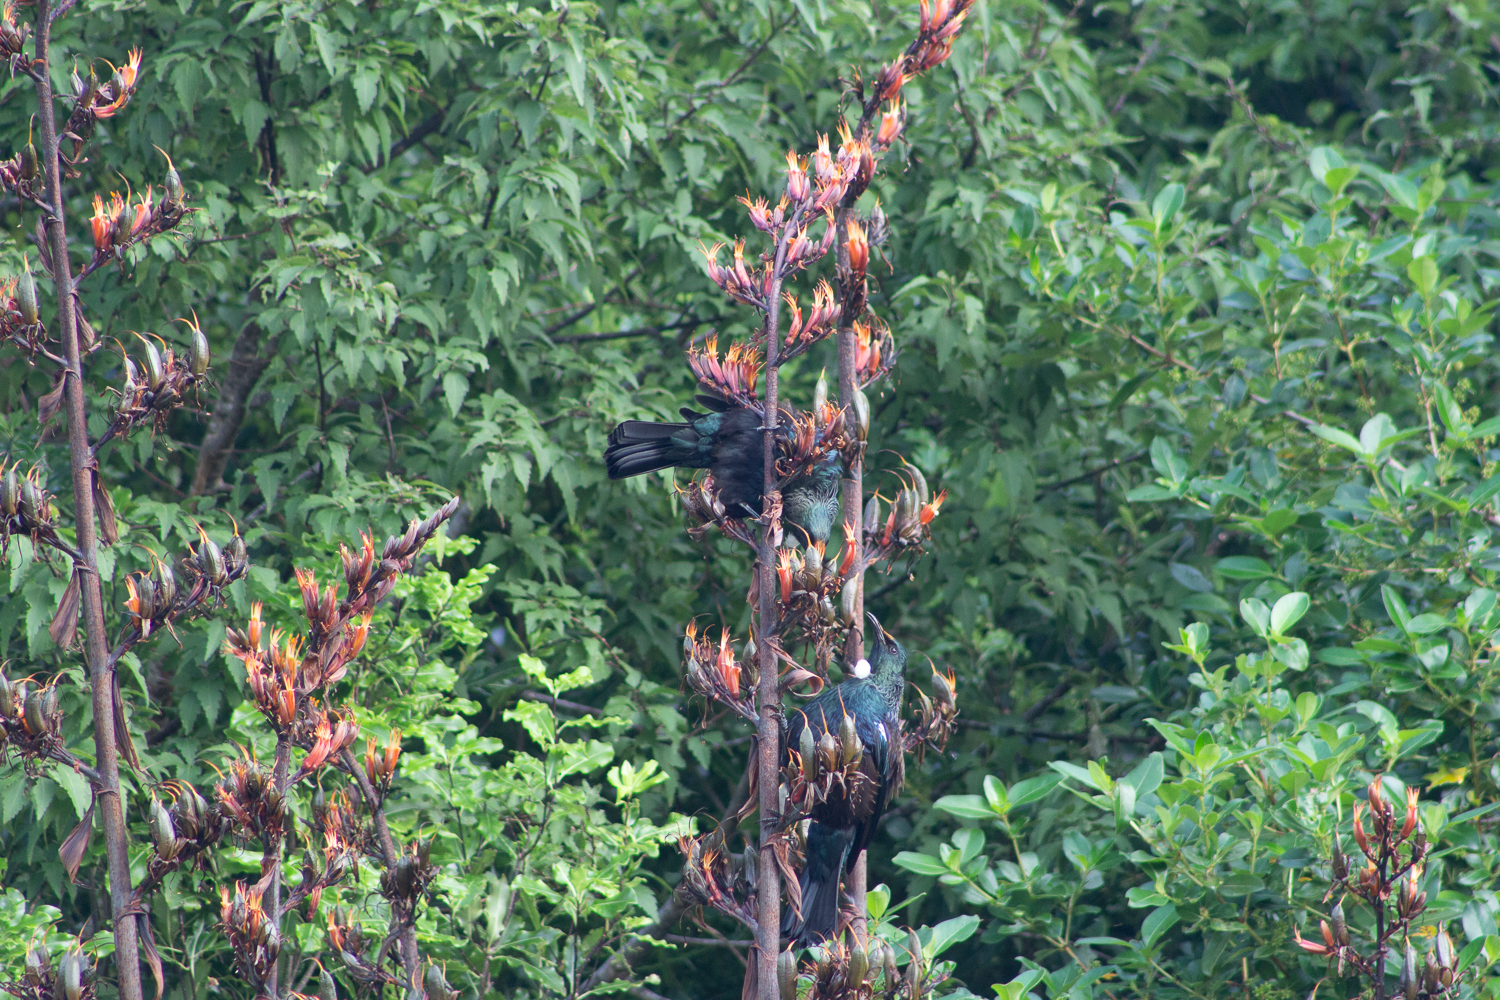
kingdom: Animalia
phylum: Chordata
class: Aves
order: Passeriformes
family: Meliphagidae
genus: Prosthemadera
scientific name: Prosthemadera novaeseelandiae
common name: Tui
